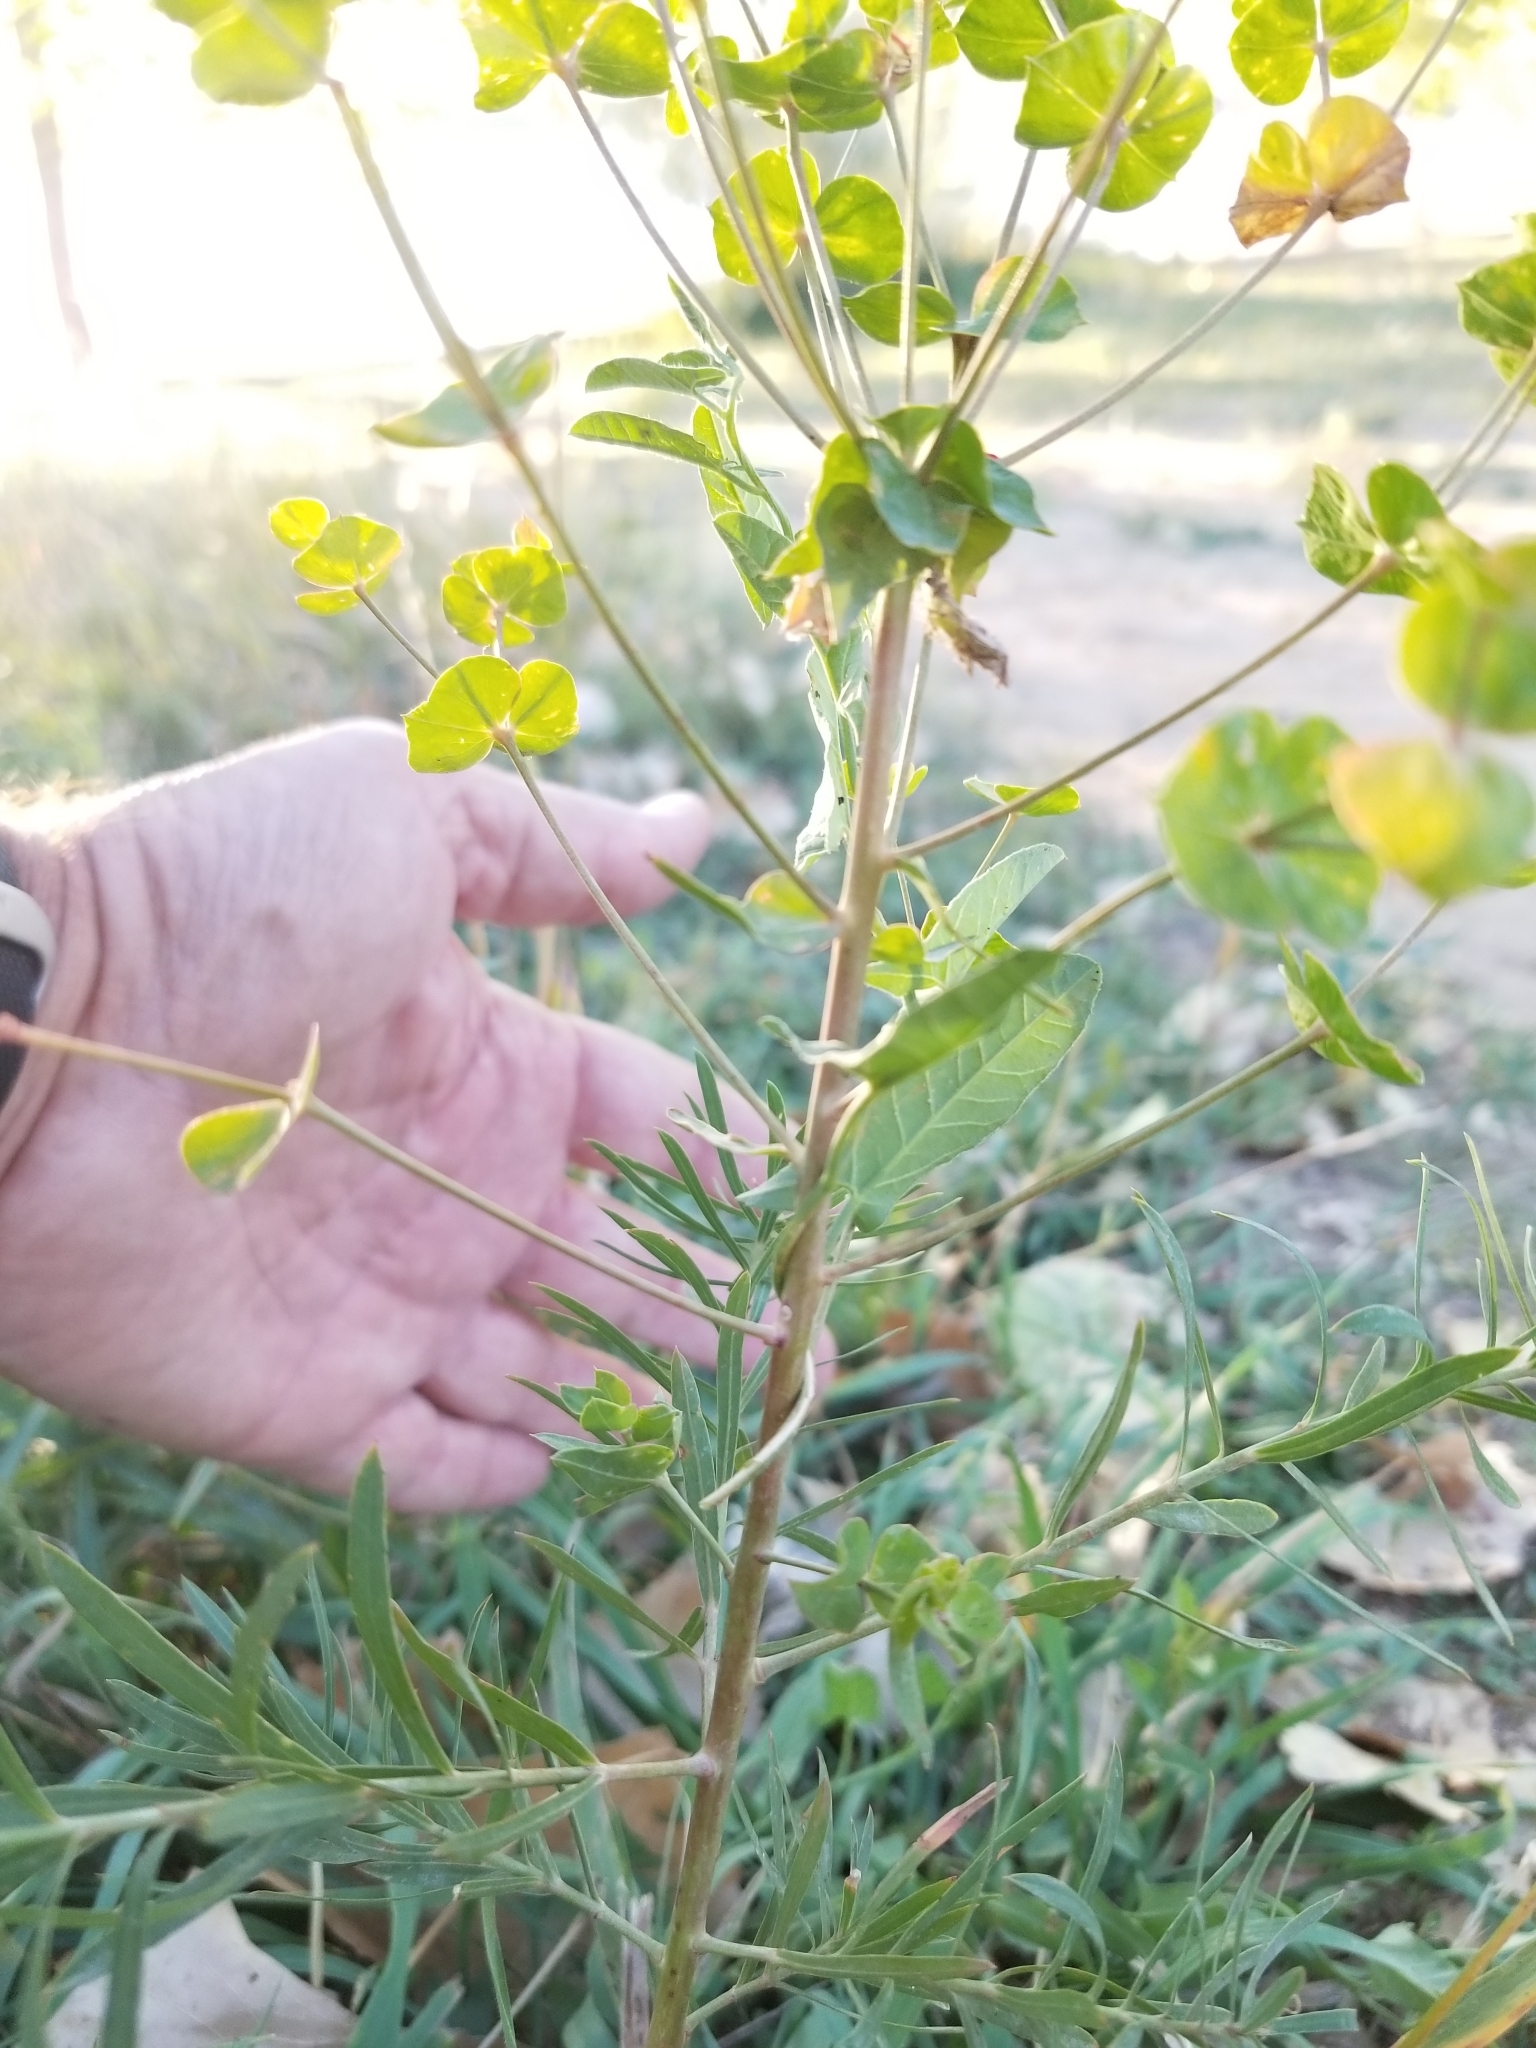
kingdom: Plantae
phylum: Tracheophyta
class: Magnoliopsida
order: Malpighiales
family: Euphorbiaceae
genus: Euphorbia
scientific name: Euphorbia virgata
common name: Leafy spurge
